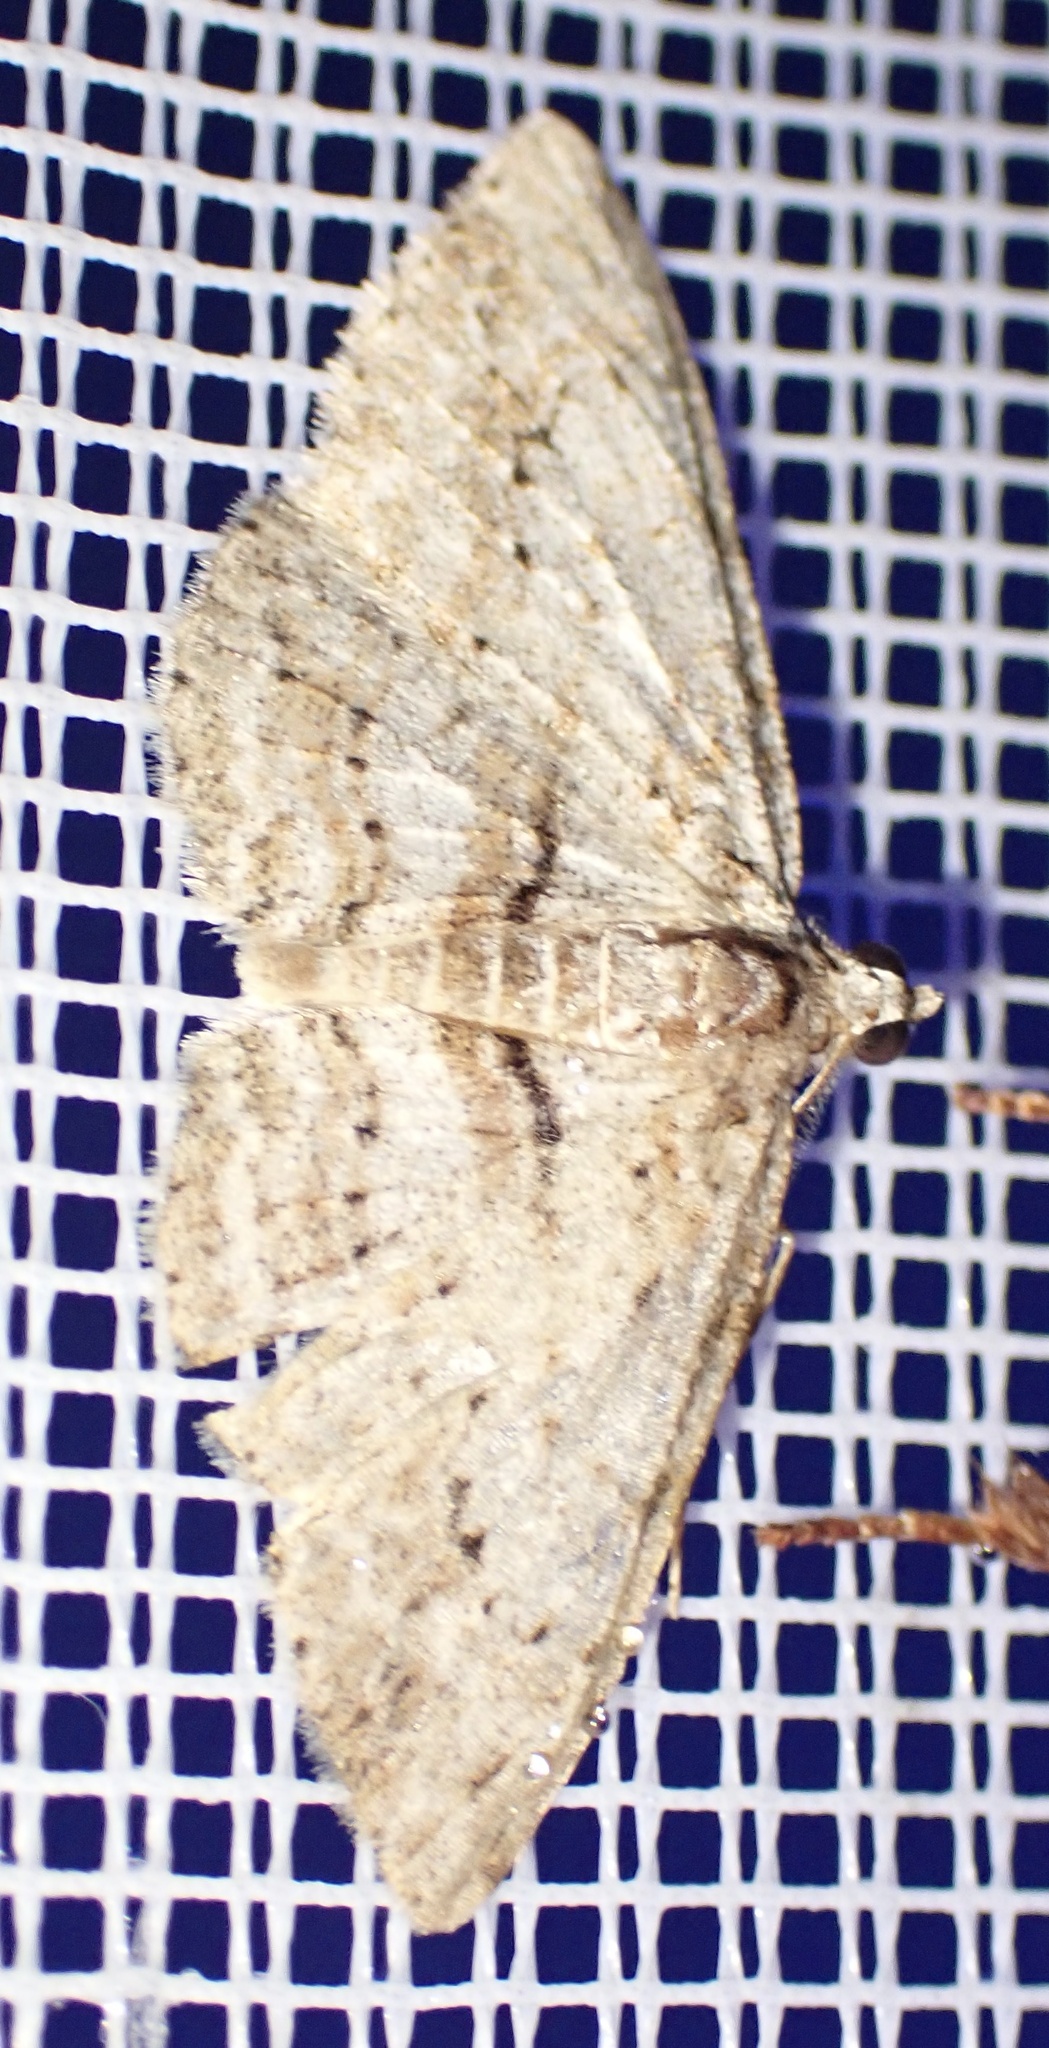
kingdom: Animalia
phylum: Arthropoda
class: Insecta
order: Lepidoptera
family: Geometridae
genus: Didymoctenia
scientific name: Didymoctenia exsuperata
